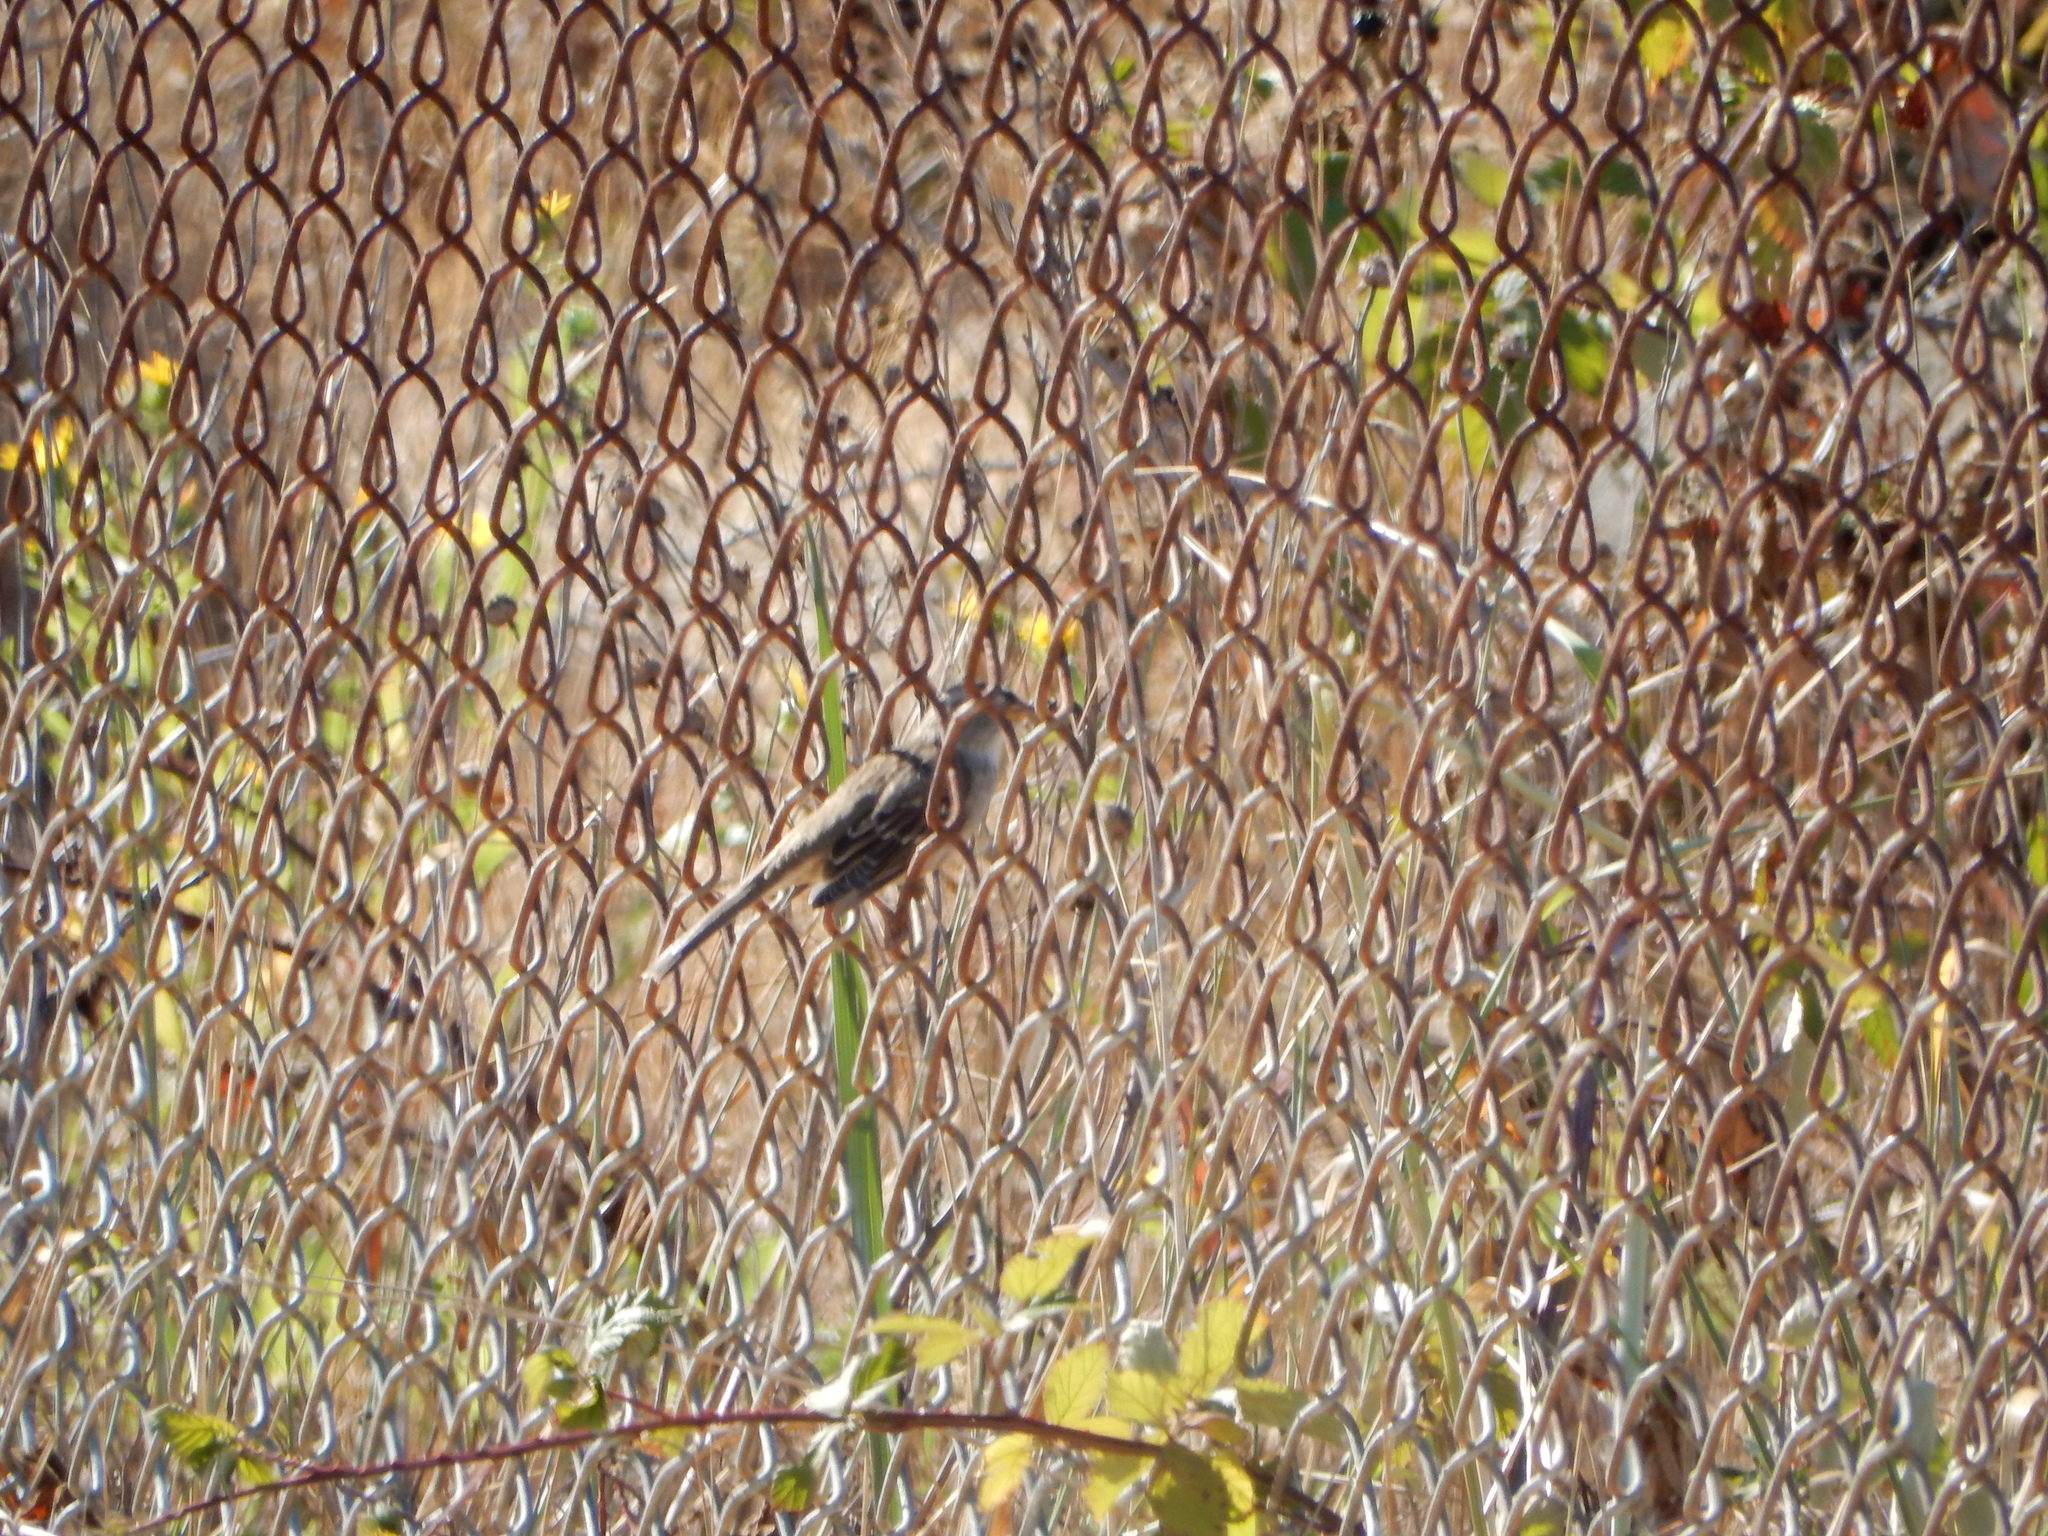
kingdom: Animalia
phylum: Chordata
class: Aves
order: Passeriformes
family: Passerellidae
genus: Zonotrichia
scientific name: Zonotrichia leucophrys
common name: White-crowned sparrow
